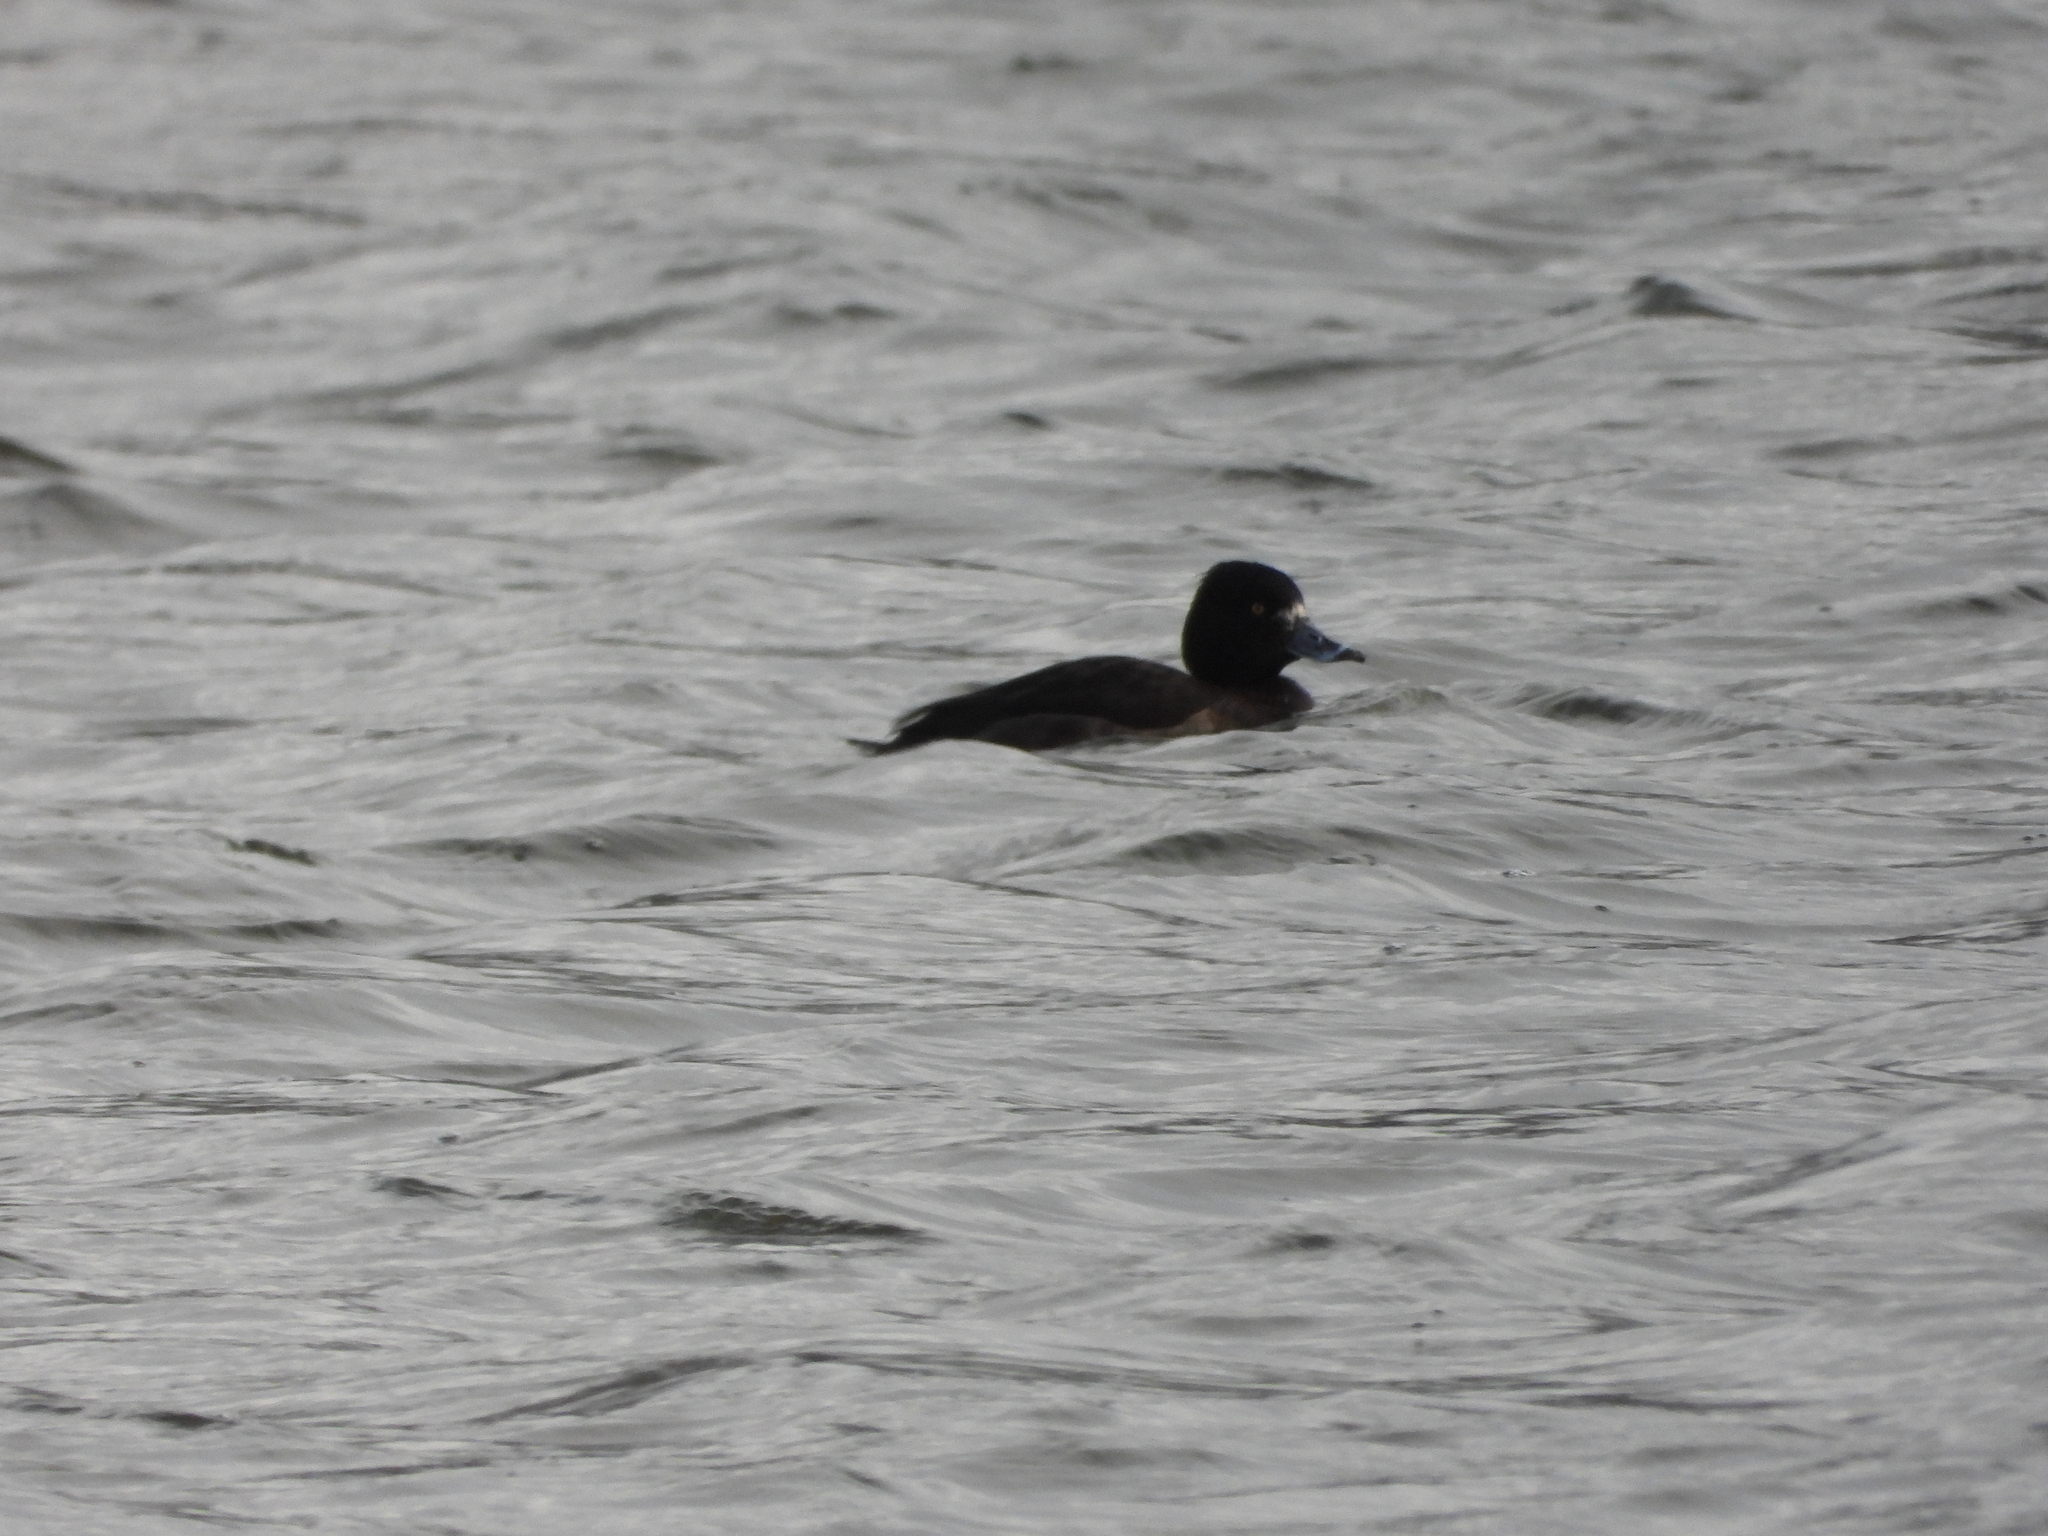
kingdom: Animalia
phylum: Chordata
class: Aves
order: Anseriformes
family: Anatidae
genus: Aythya
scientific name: Aythya fuligula
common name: Tufted duck
